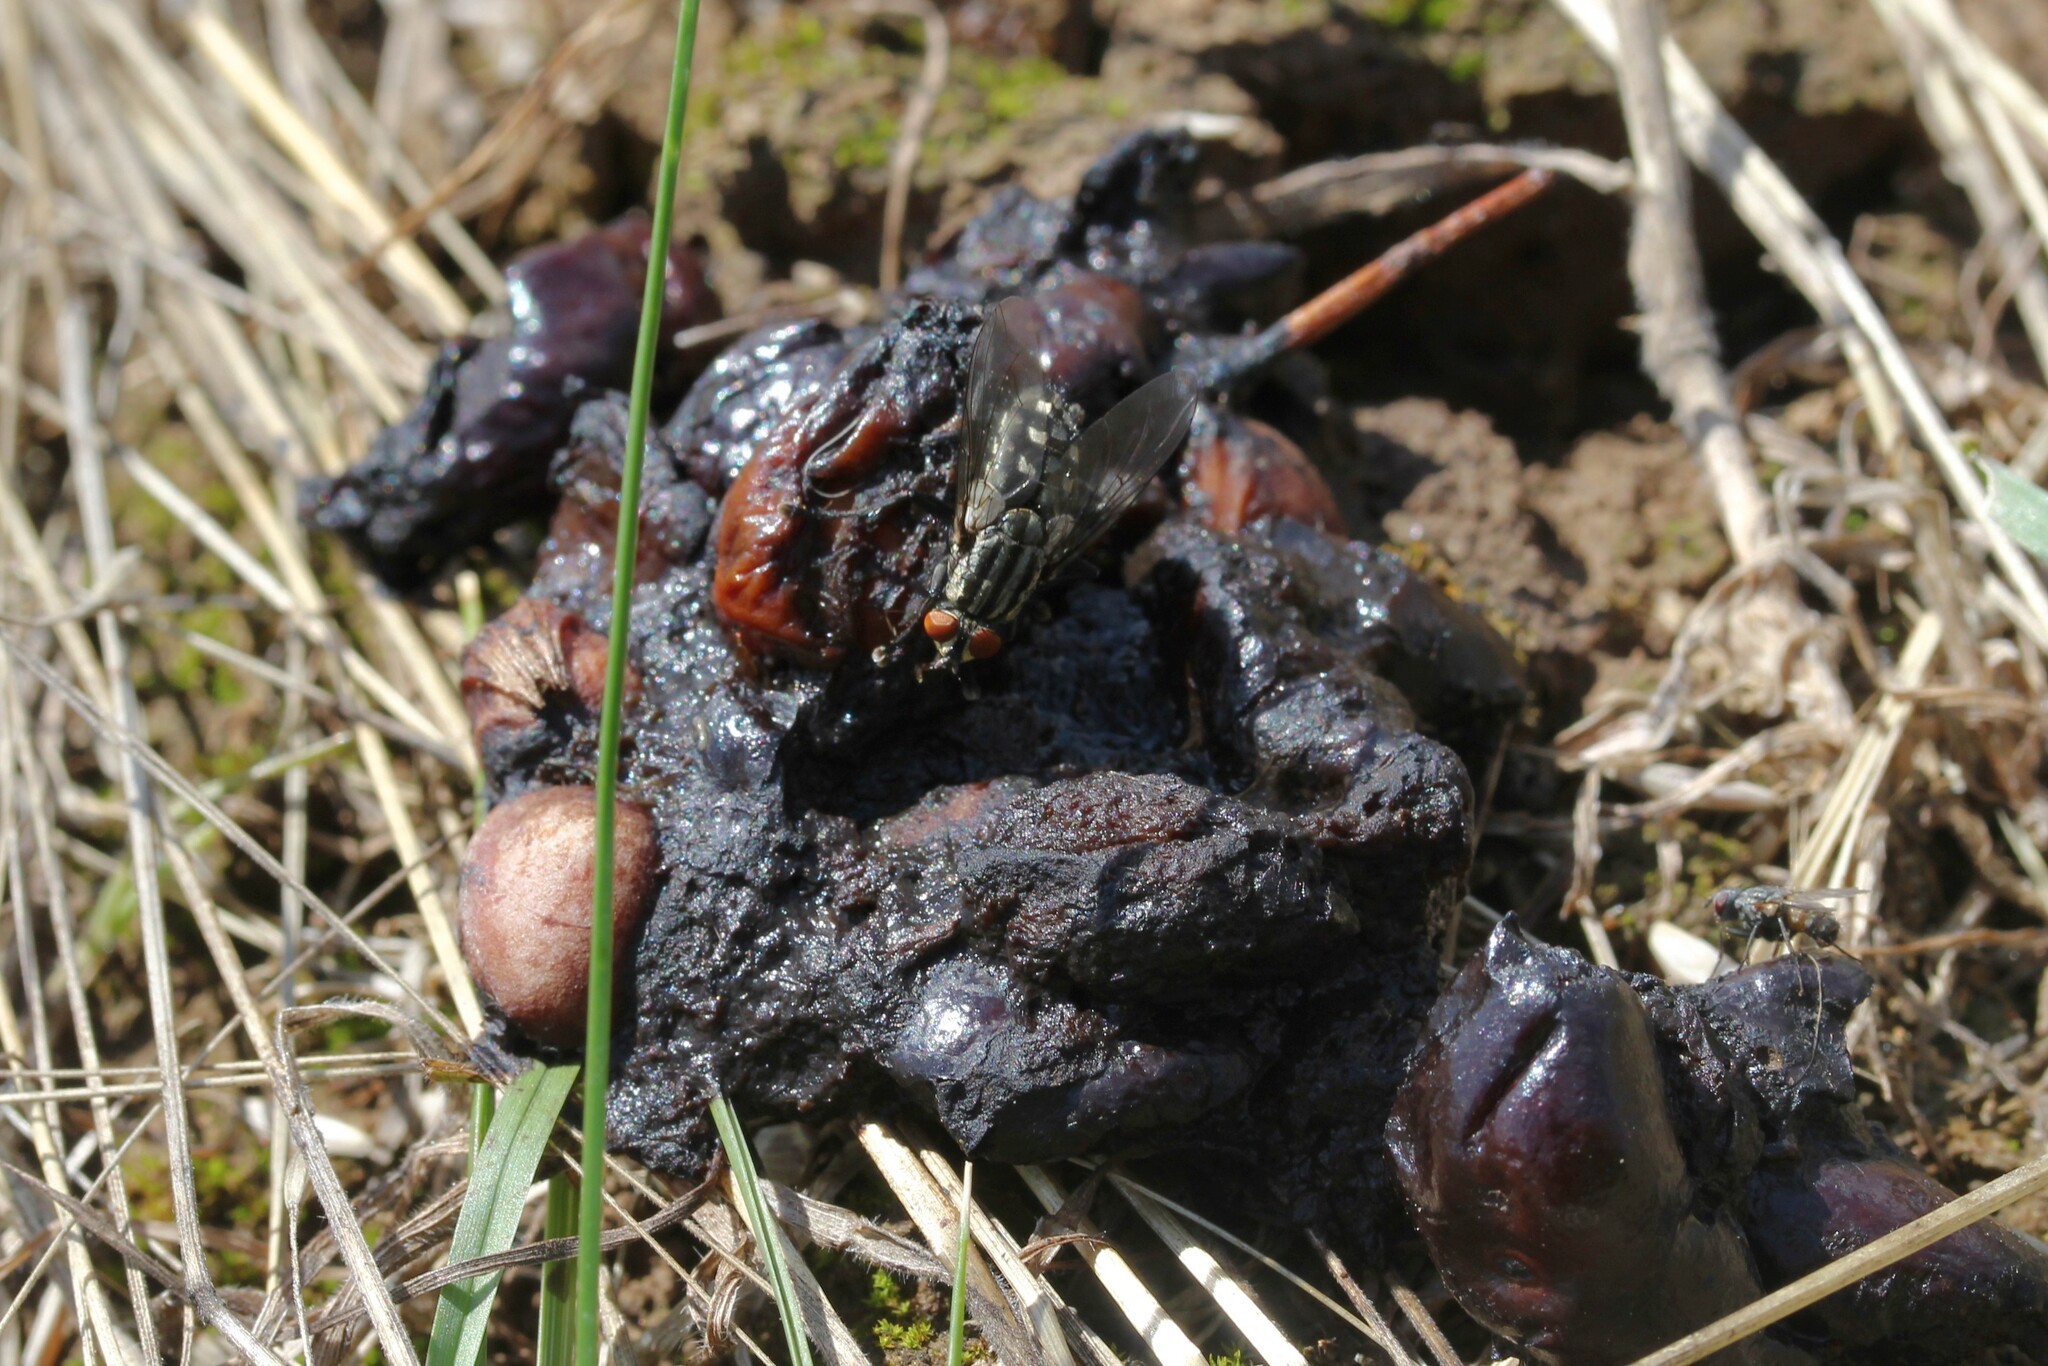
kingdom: Animalia
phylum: Chordata
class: Mammalia
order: Carnivora
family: Mustelidae
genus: Martes
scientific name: Martes
